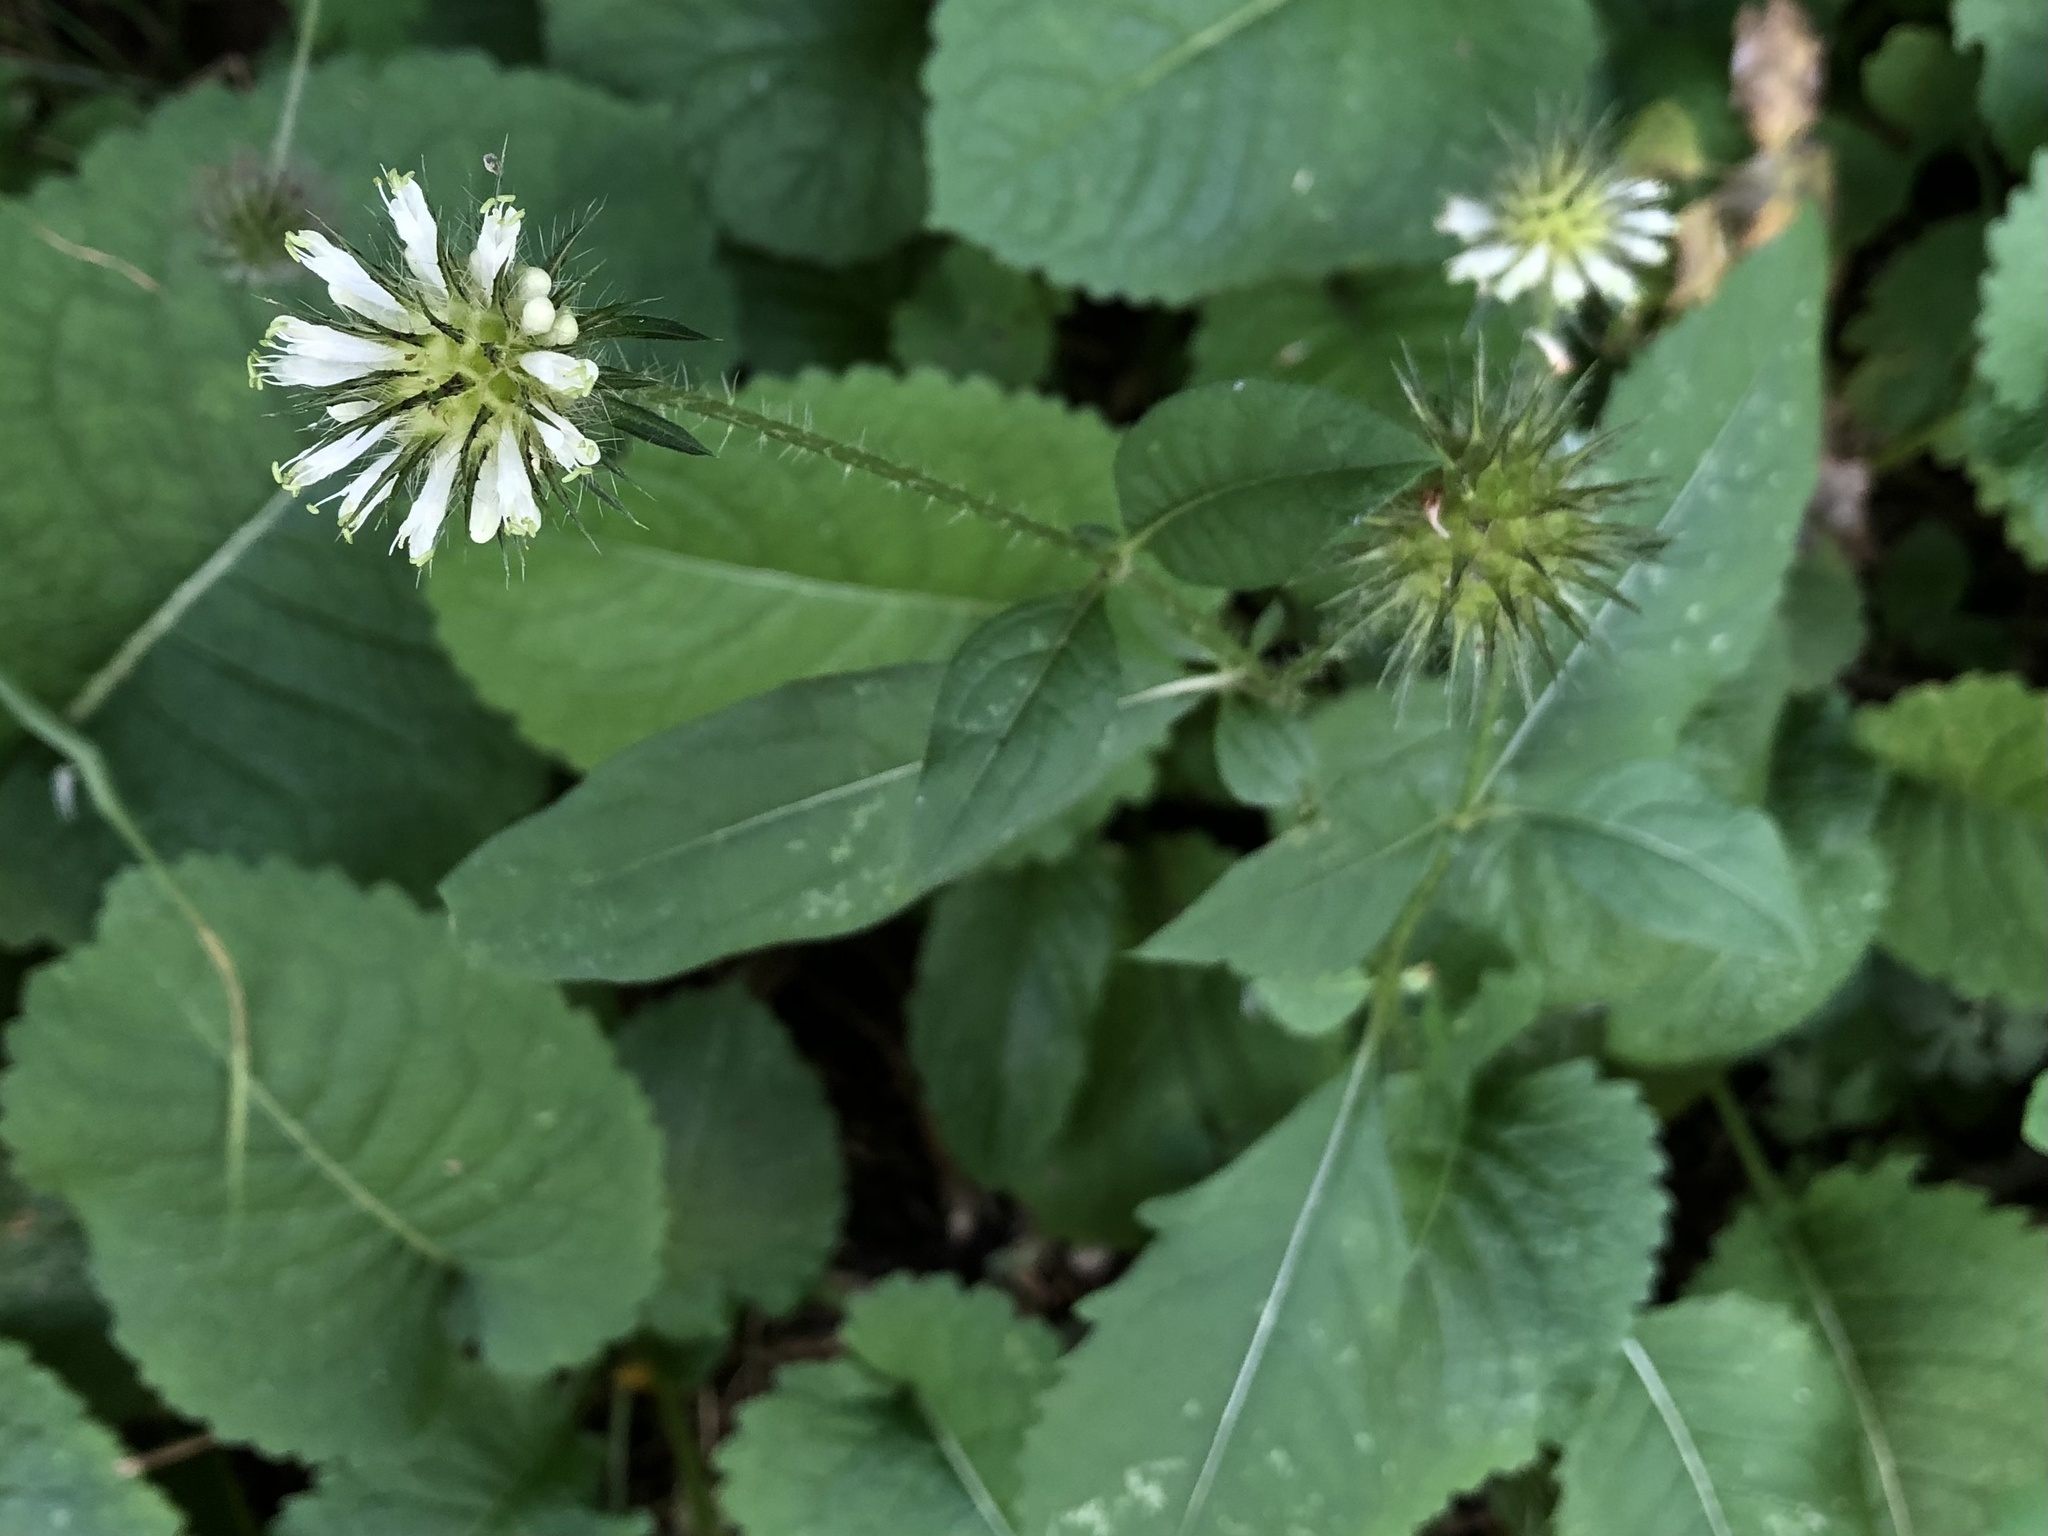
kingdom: Plantae
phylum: Tracheophyta
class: Magnoliopsida
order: Dipsacales
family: Caprifoliaceae
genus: Dipsacus
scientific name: Dipsacus strigosus
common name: Yellow-flowered teasel
